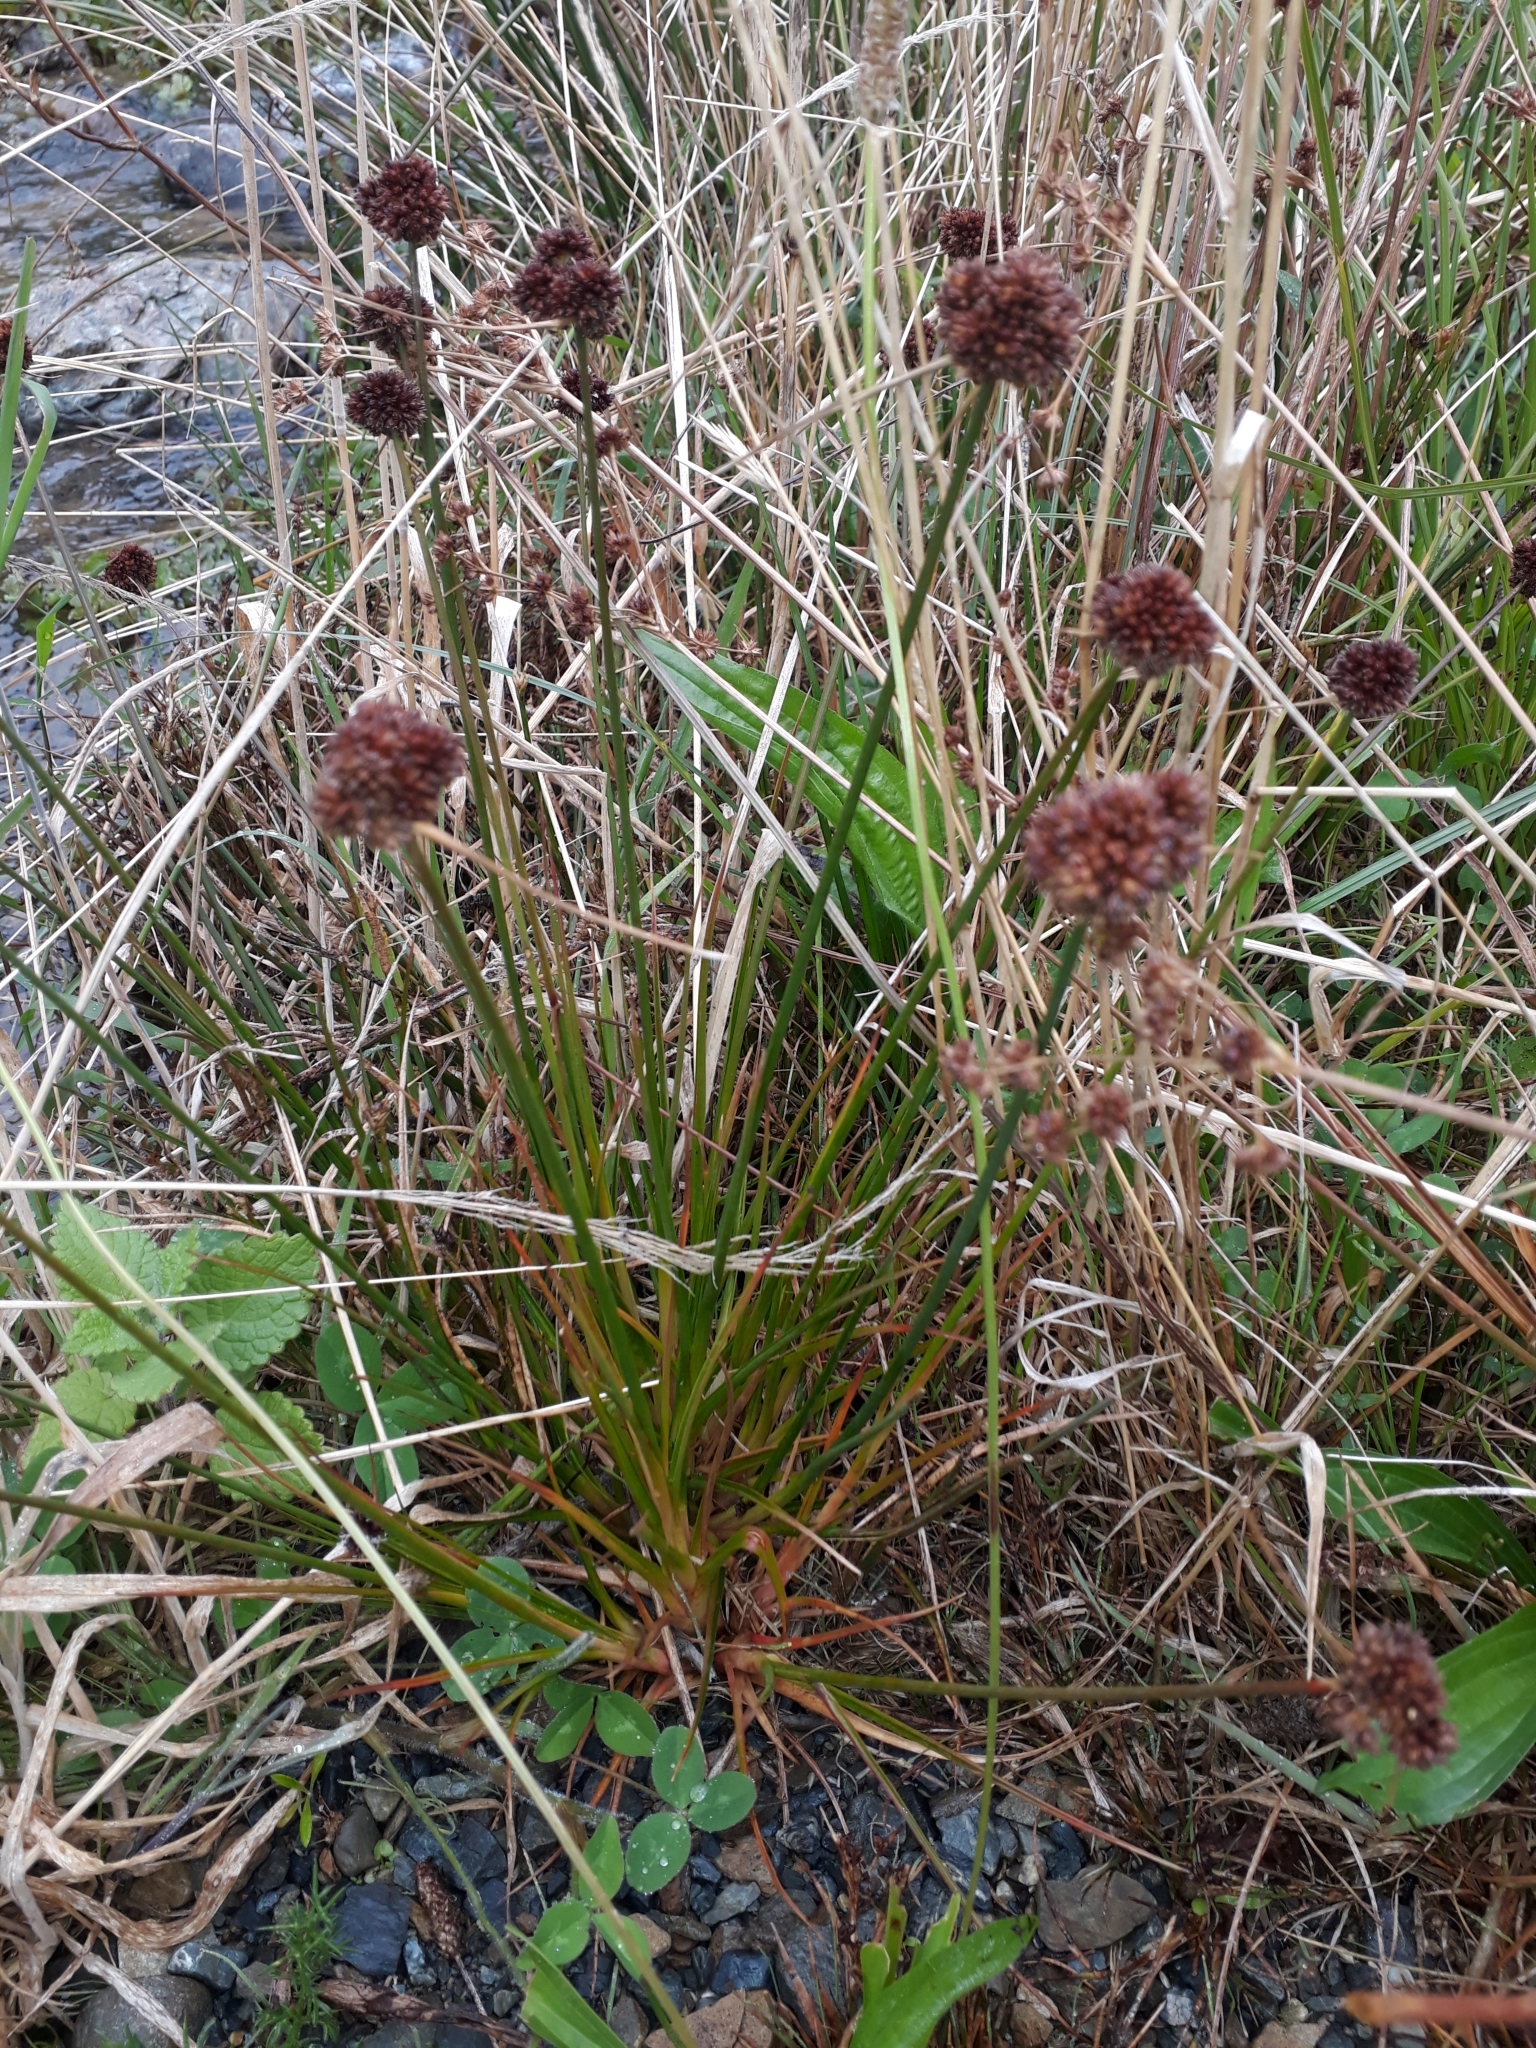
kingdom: Plantae
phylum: Tracheophyta
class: Liliopsida
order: Poales
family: Juncaceae
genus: Juncus
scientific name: Juncus caespiticius
